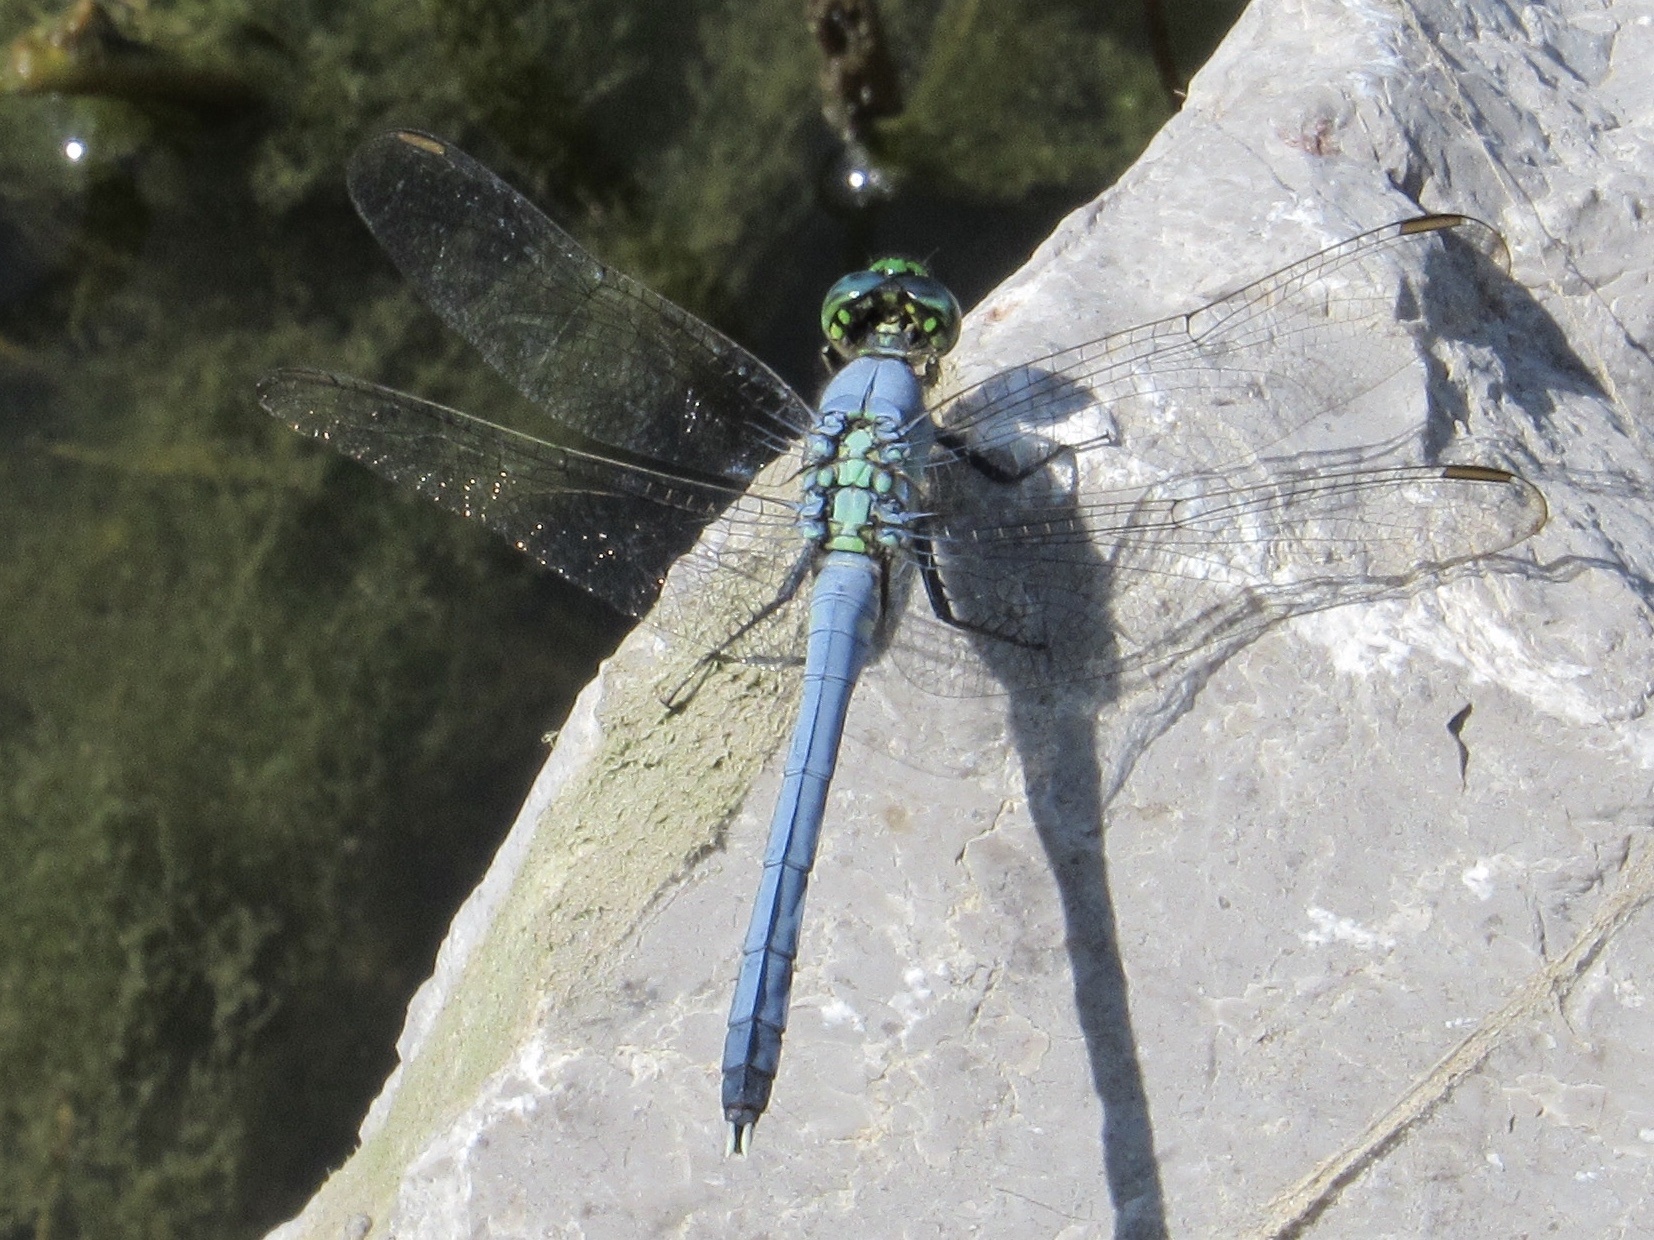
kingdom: Animalia
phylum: Arthropoda
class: Insecta
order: Odonata
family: Libellulidae
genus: Erythemis
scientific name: Erythemis simplicicollis
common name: Eastern pondhawk
